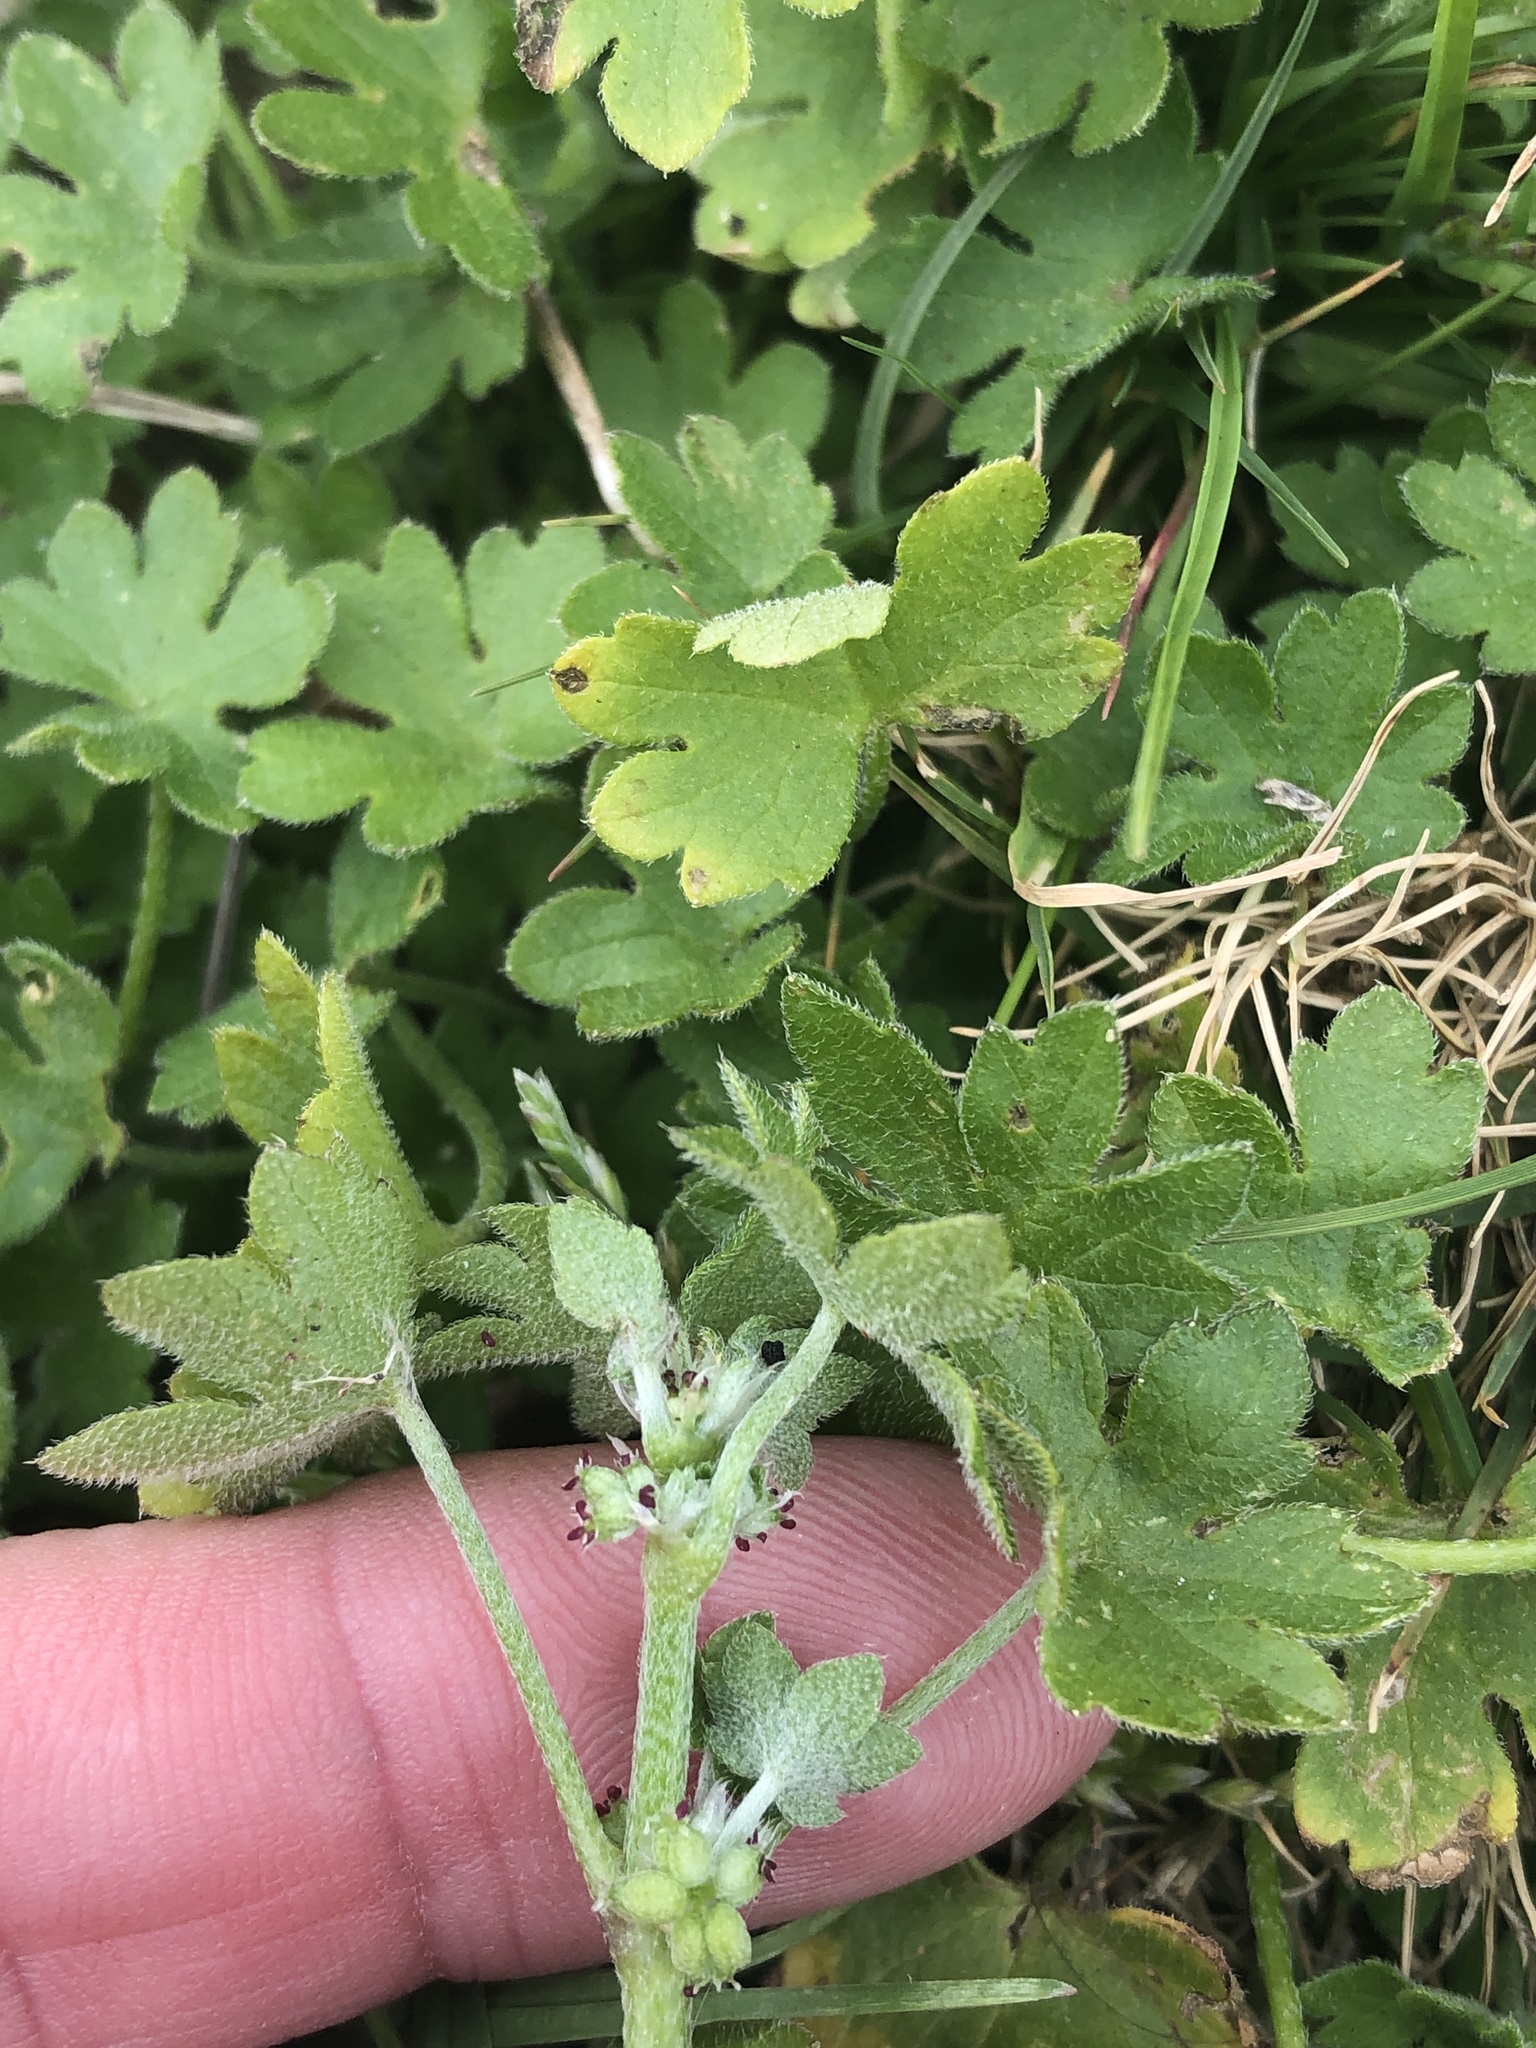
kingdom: Plantae
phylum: Tracheophyta
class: Magnoliopsida
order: Apiales
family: Apiaceae
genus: Bowlesia
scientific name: Bowlesia incana
